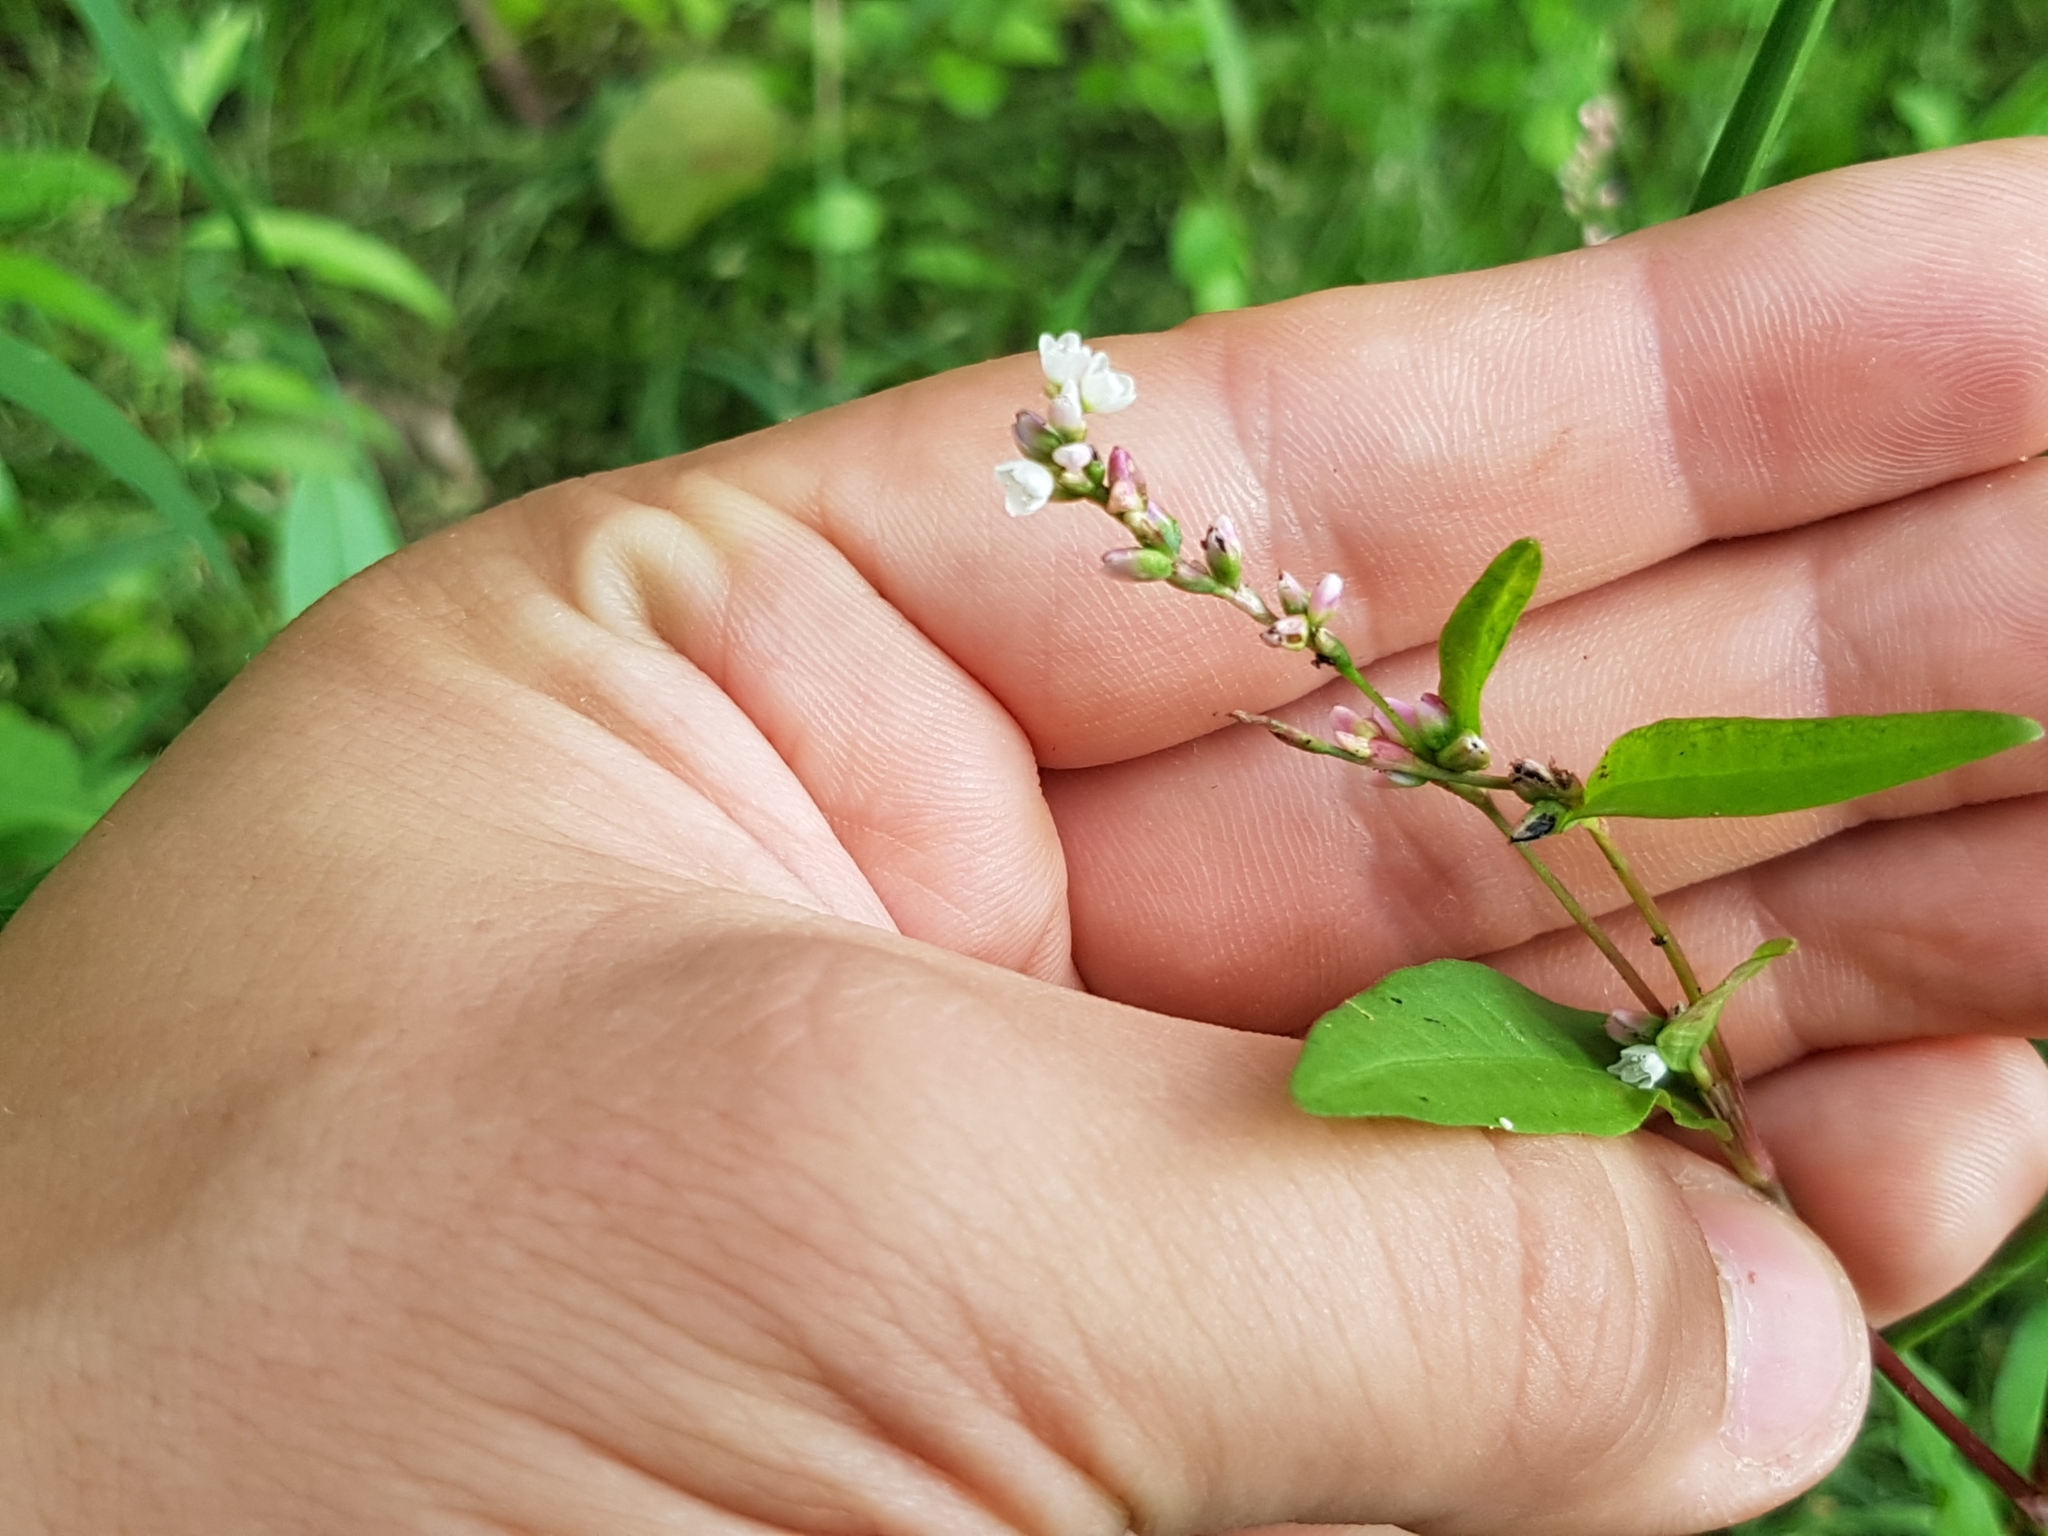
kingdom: Plantae
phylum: Tracheophyta
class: Magnoliopsida
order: Caryophyllales
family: Polygonaceae
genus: Persicaria
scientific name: Persicaria hydropiper
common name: Water-pepper
